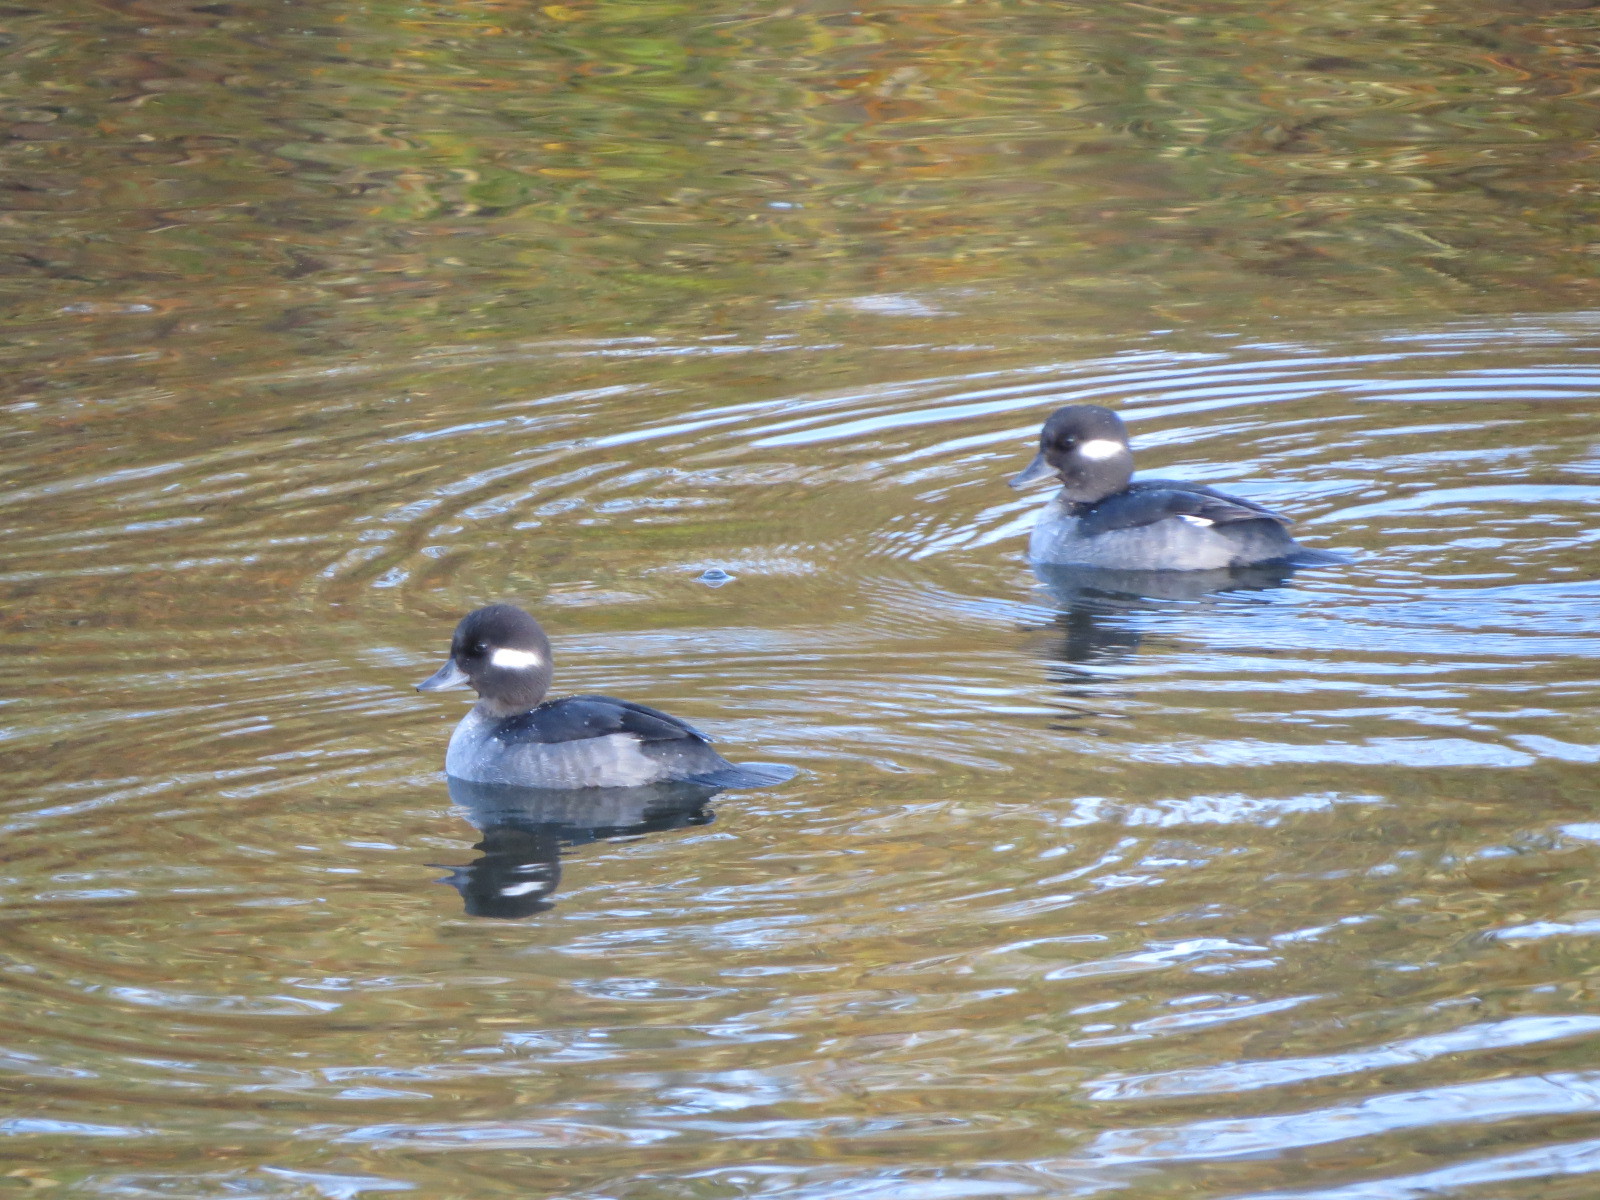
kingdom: Animalia
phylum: Chordata
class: Aves
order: Anseriformes
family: Anatidae
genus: Bucephala
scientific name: Bucephala albeola
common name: Bufflehead
